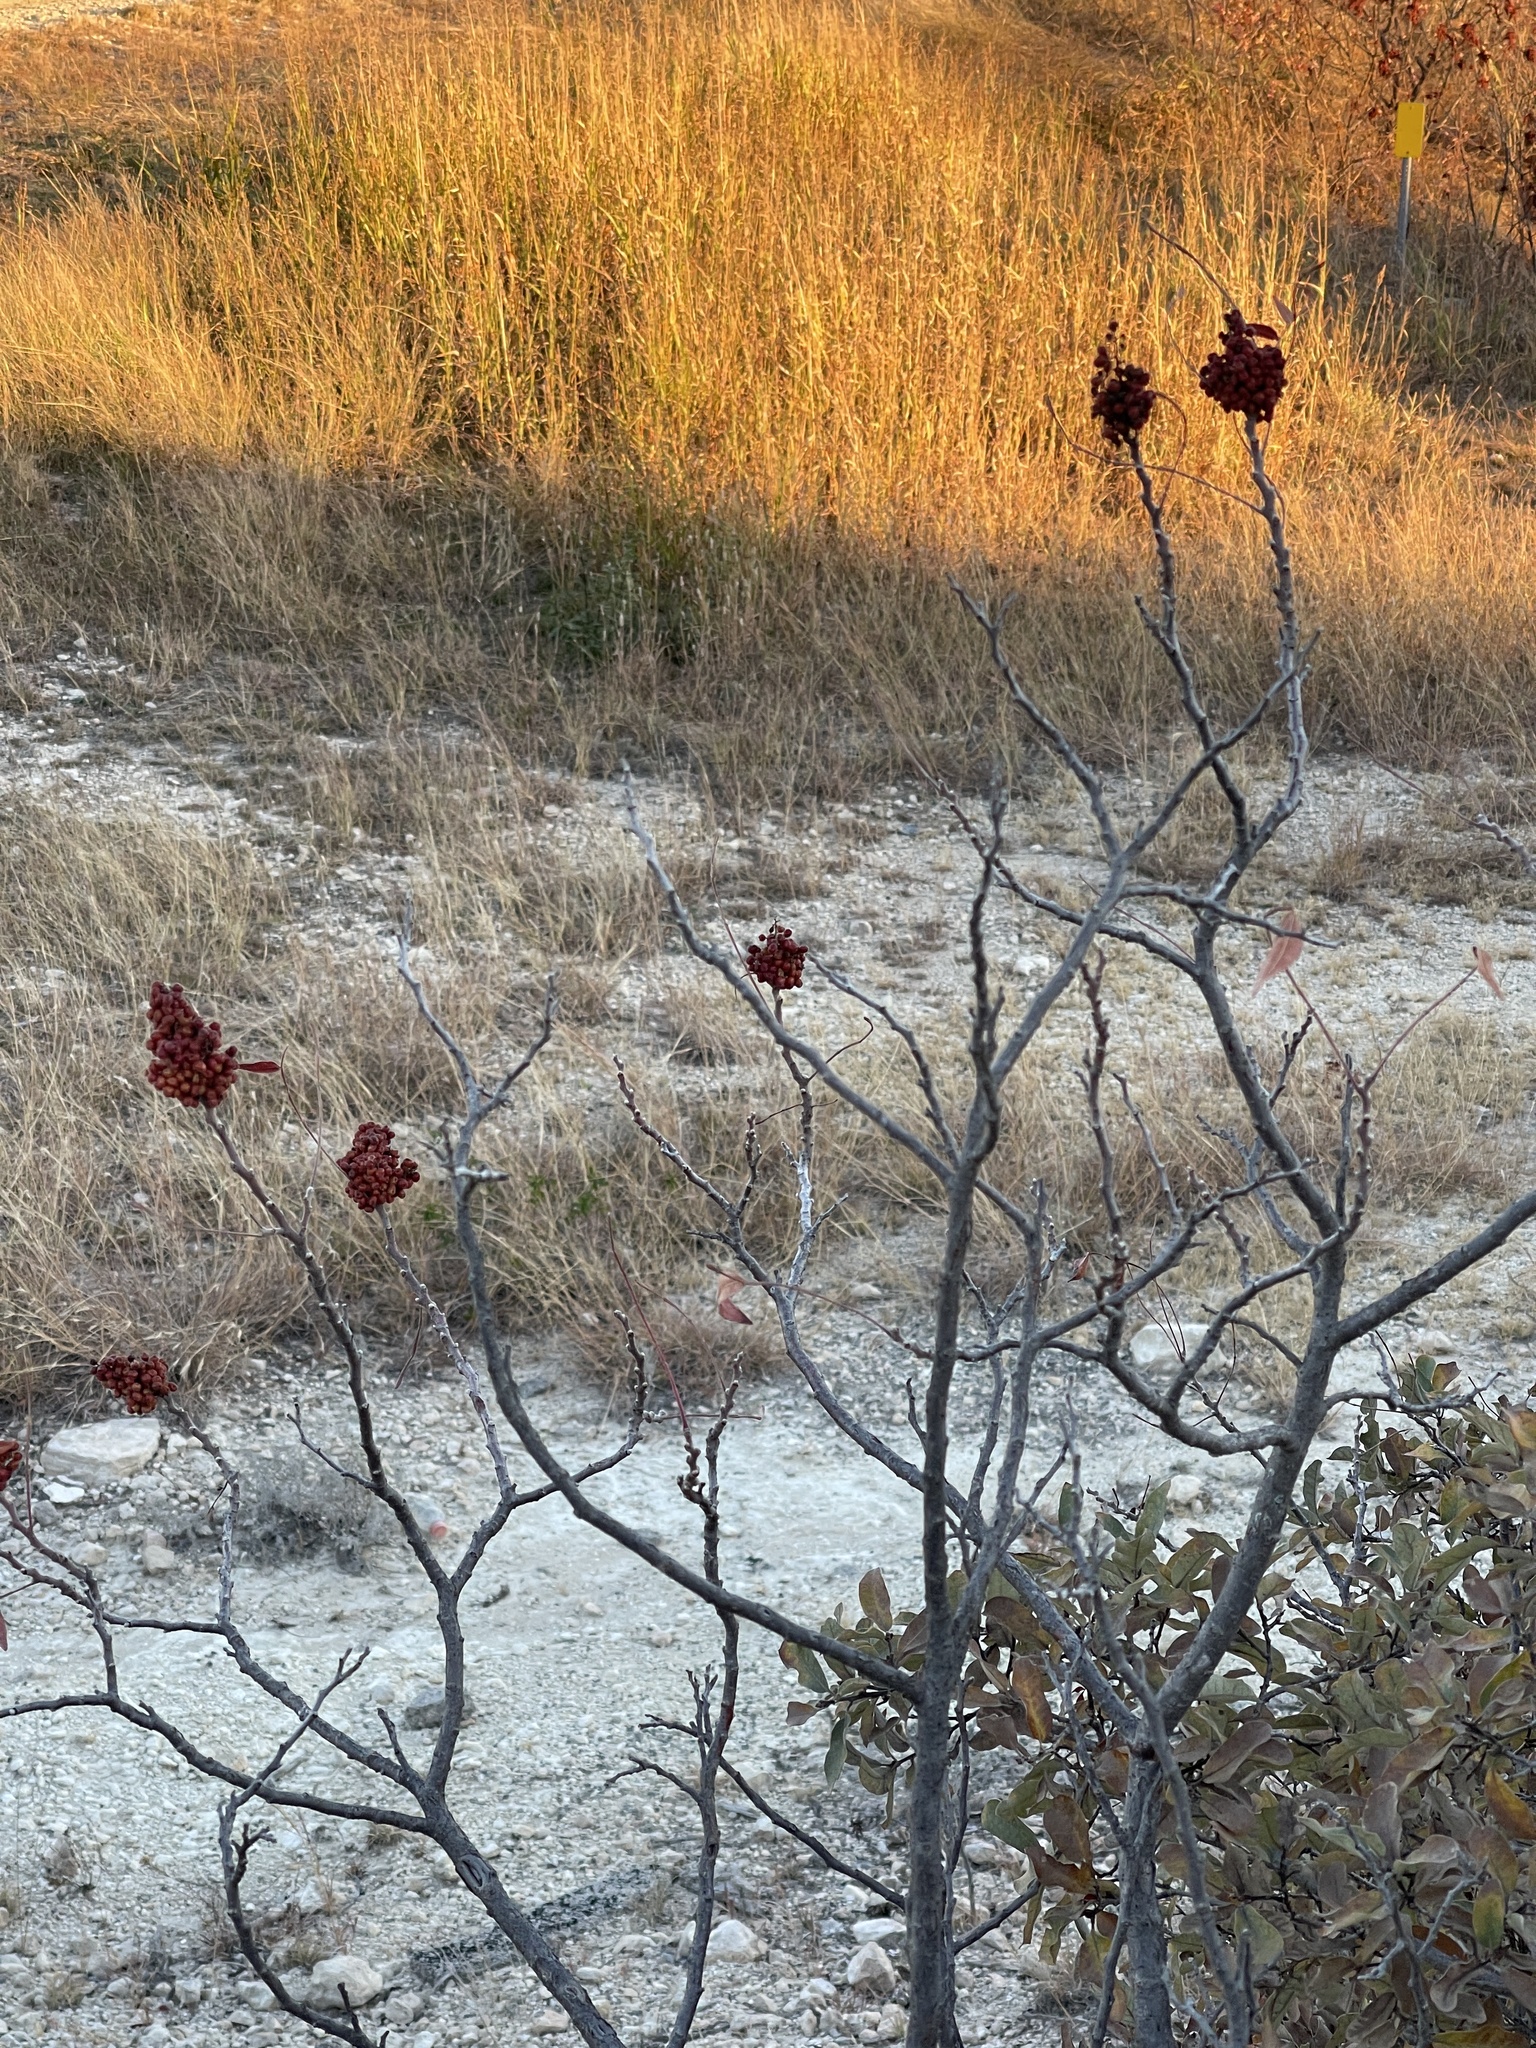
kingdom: Plantae
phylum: Tracheophyta
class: Magnoliopsida
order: Sapindales
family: Anacardiaceae
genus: Rhus
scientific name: Rhus lanceolata
